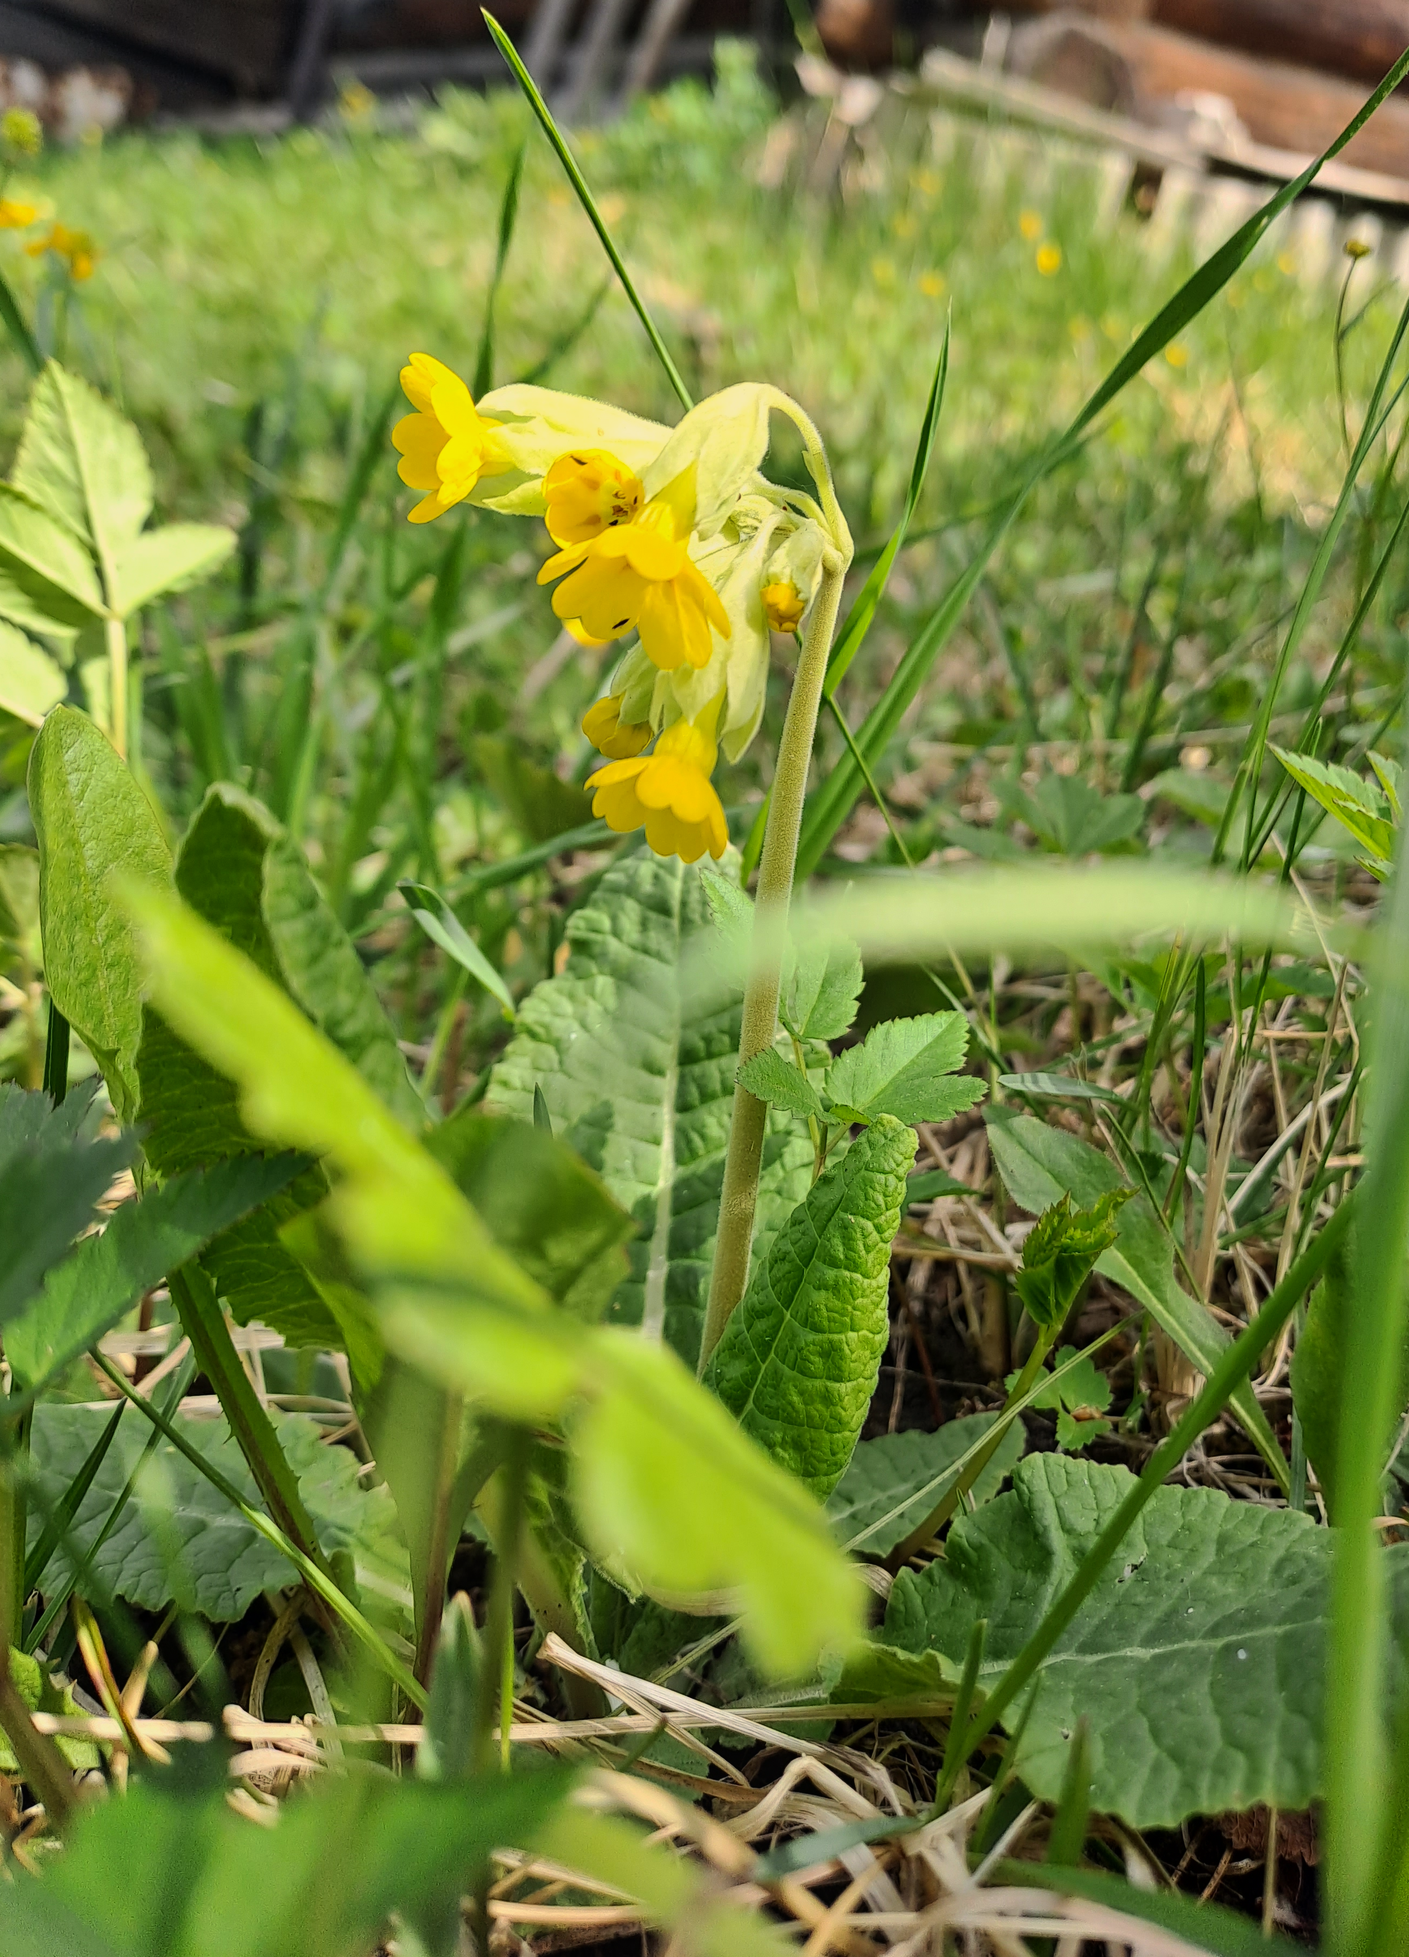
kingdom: Plantae
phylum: Tracheophyta
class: Magnoliopsida
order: Ericales
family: Primulaceae
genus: Primula
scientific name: Primula veris
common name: Cowslip
